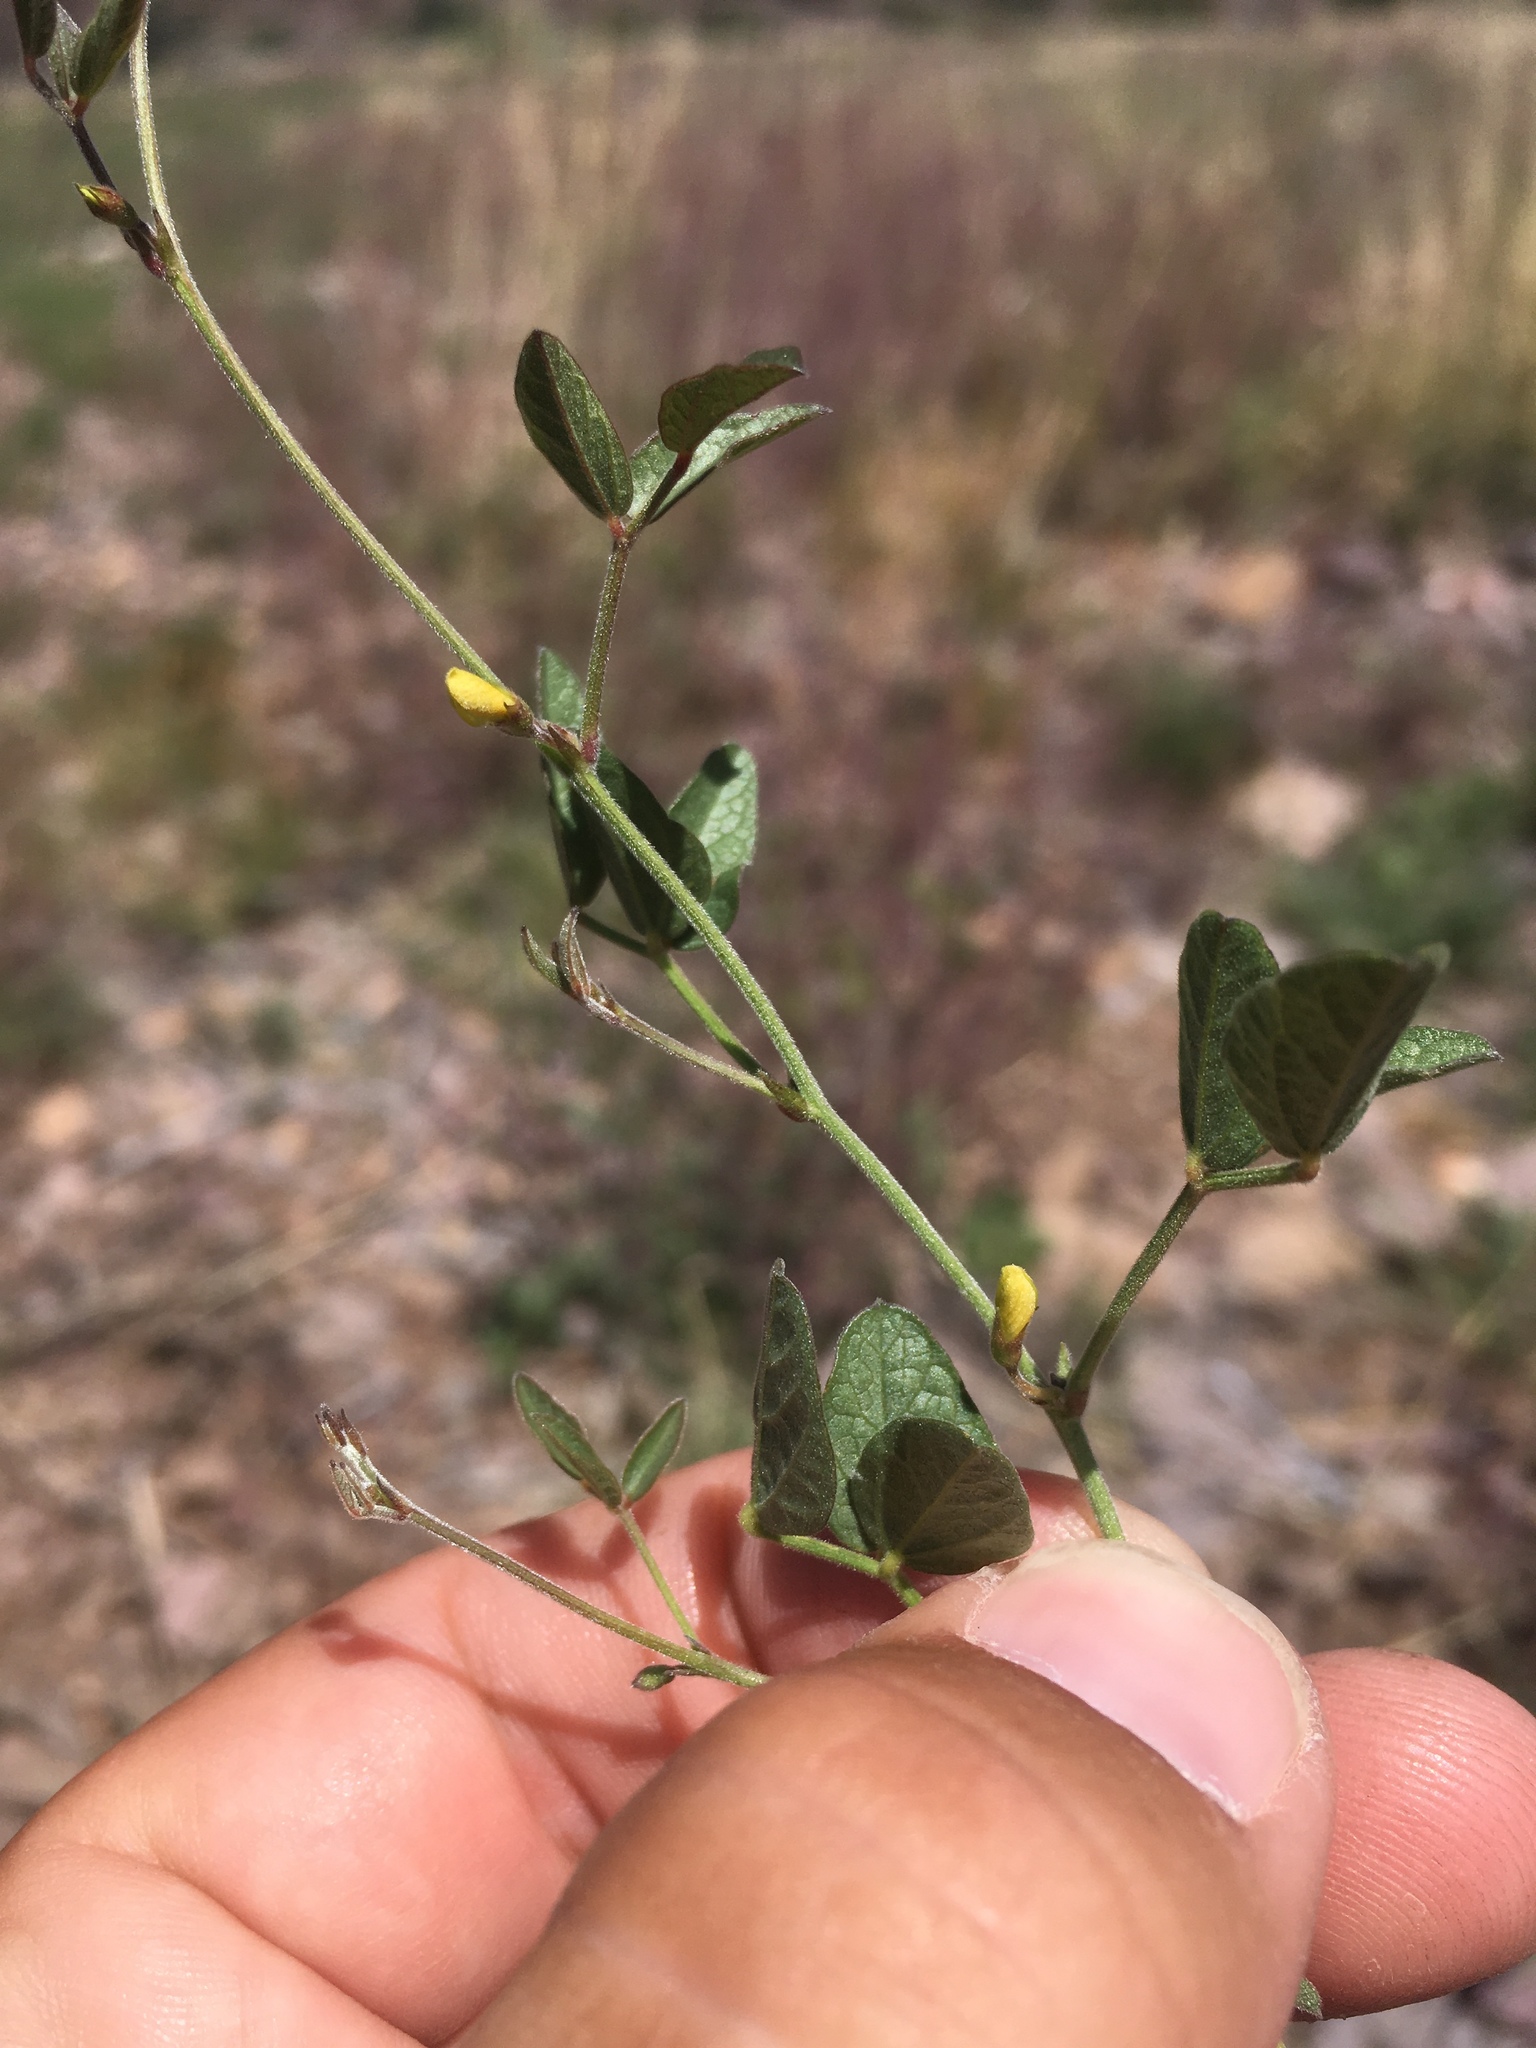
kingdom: Plantae
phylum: Tracheophyta
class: Magnoliopsida
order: Fabales
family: Fabaceae
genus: Rhynchosia
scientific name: Rhynchosia senna
